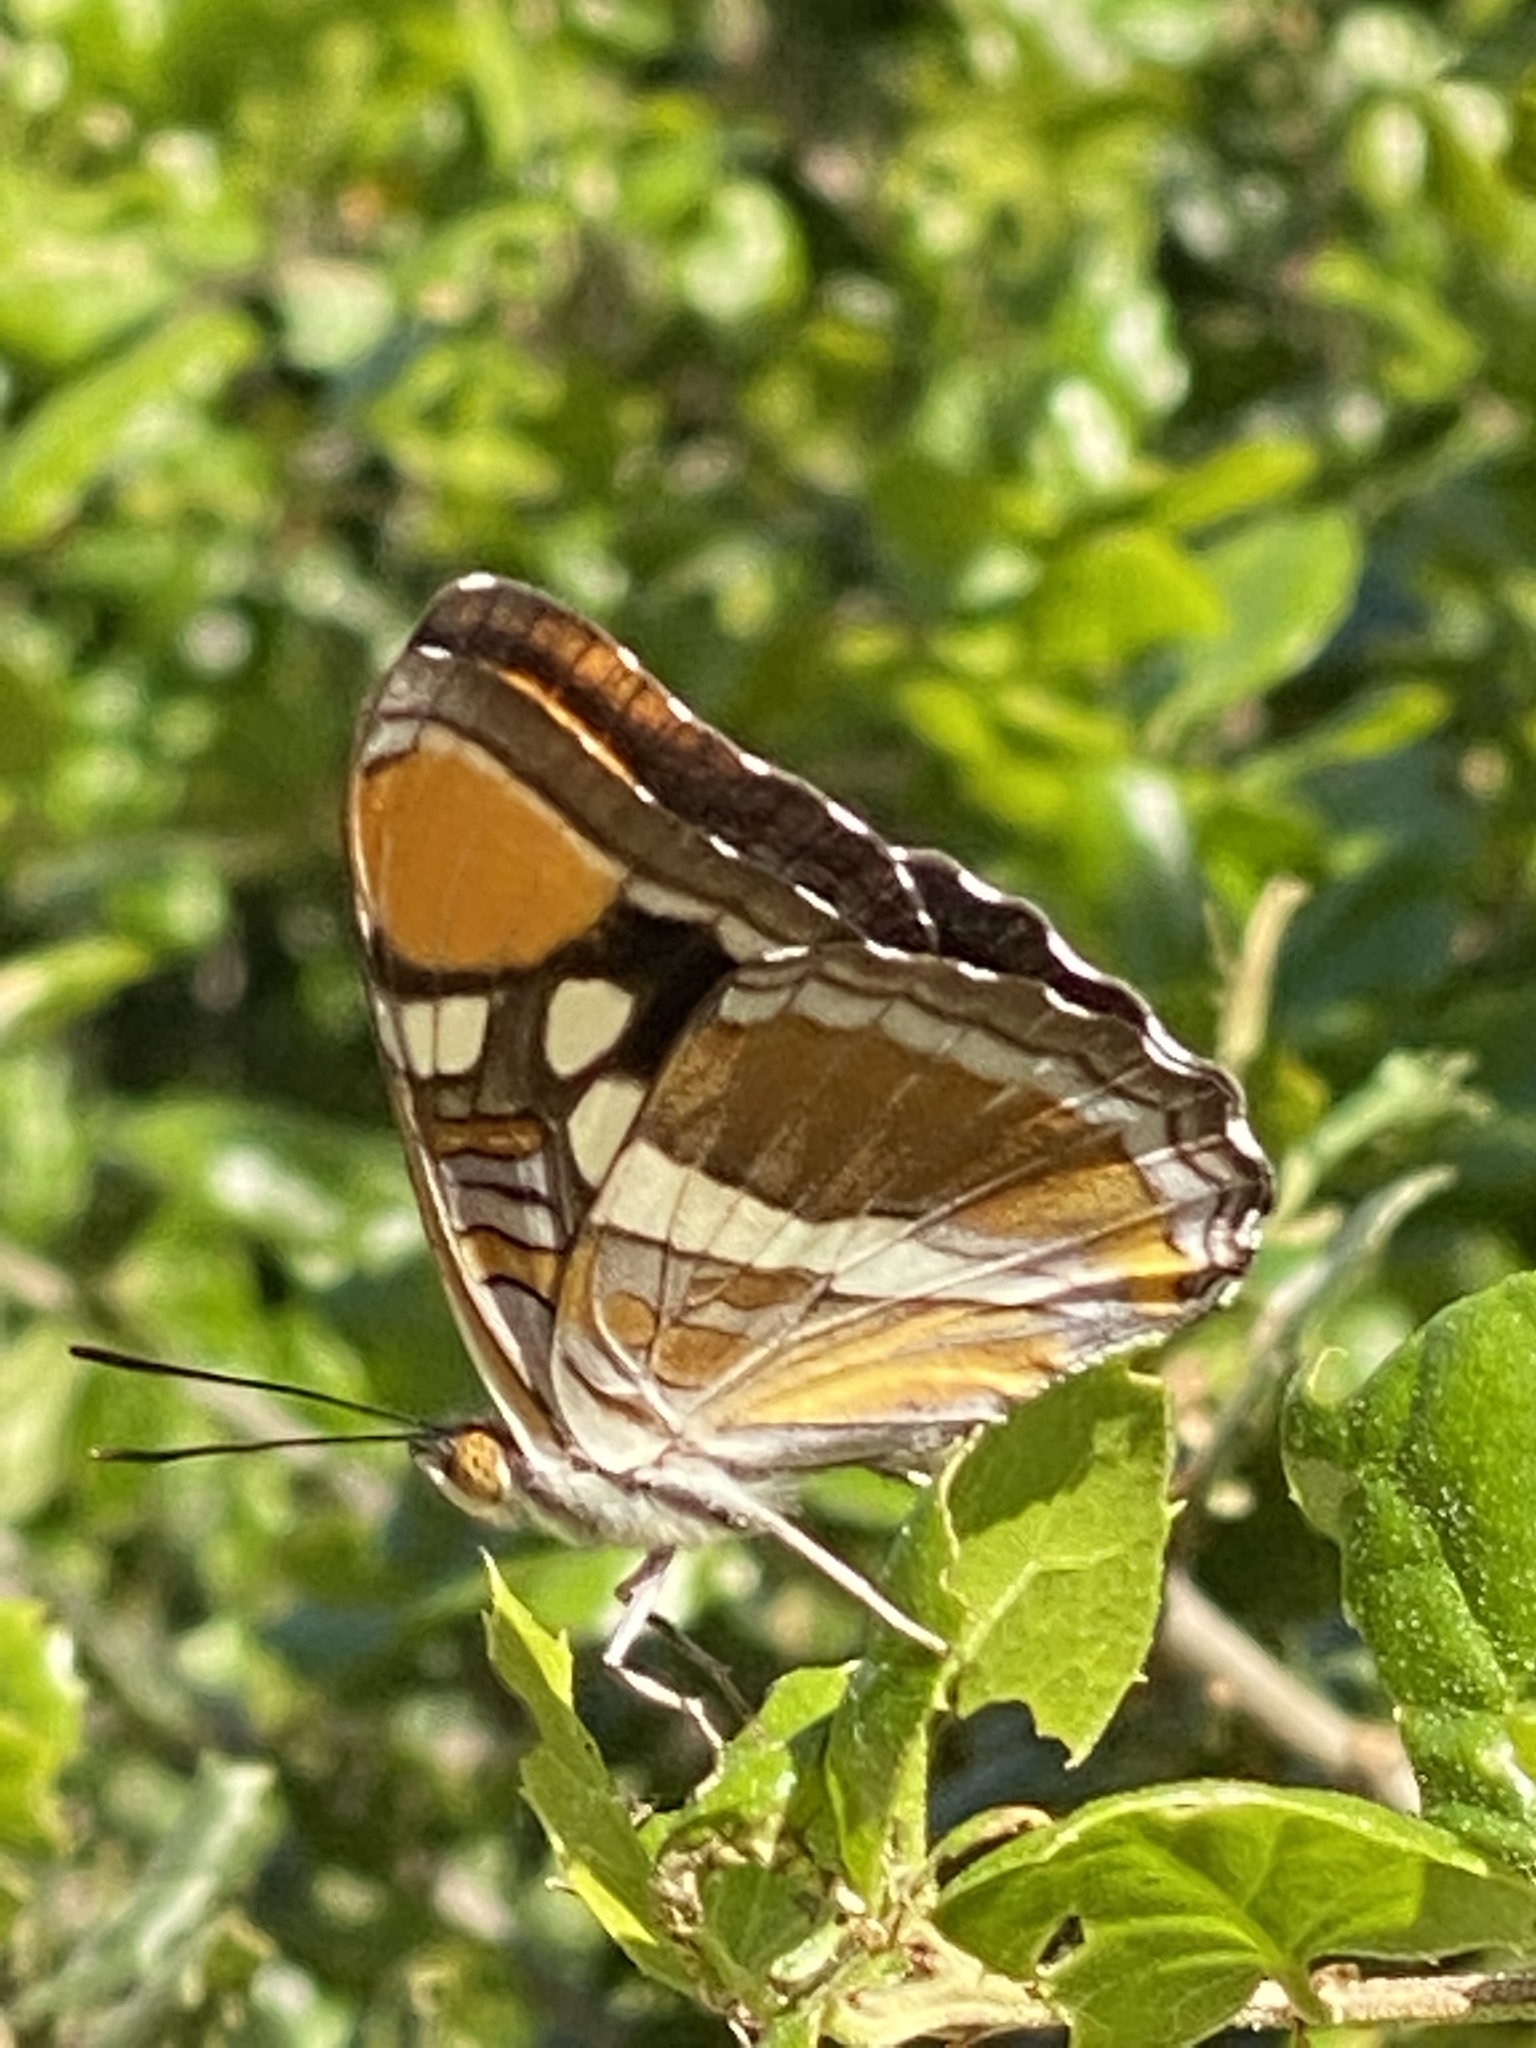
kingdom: Animalia
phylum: Arthropoda
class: Insecta
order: Lepidoptera
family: Nymphalidae
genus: Limenitis
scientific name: Limenitis bredowii
